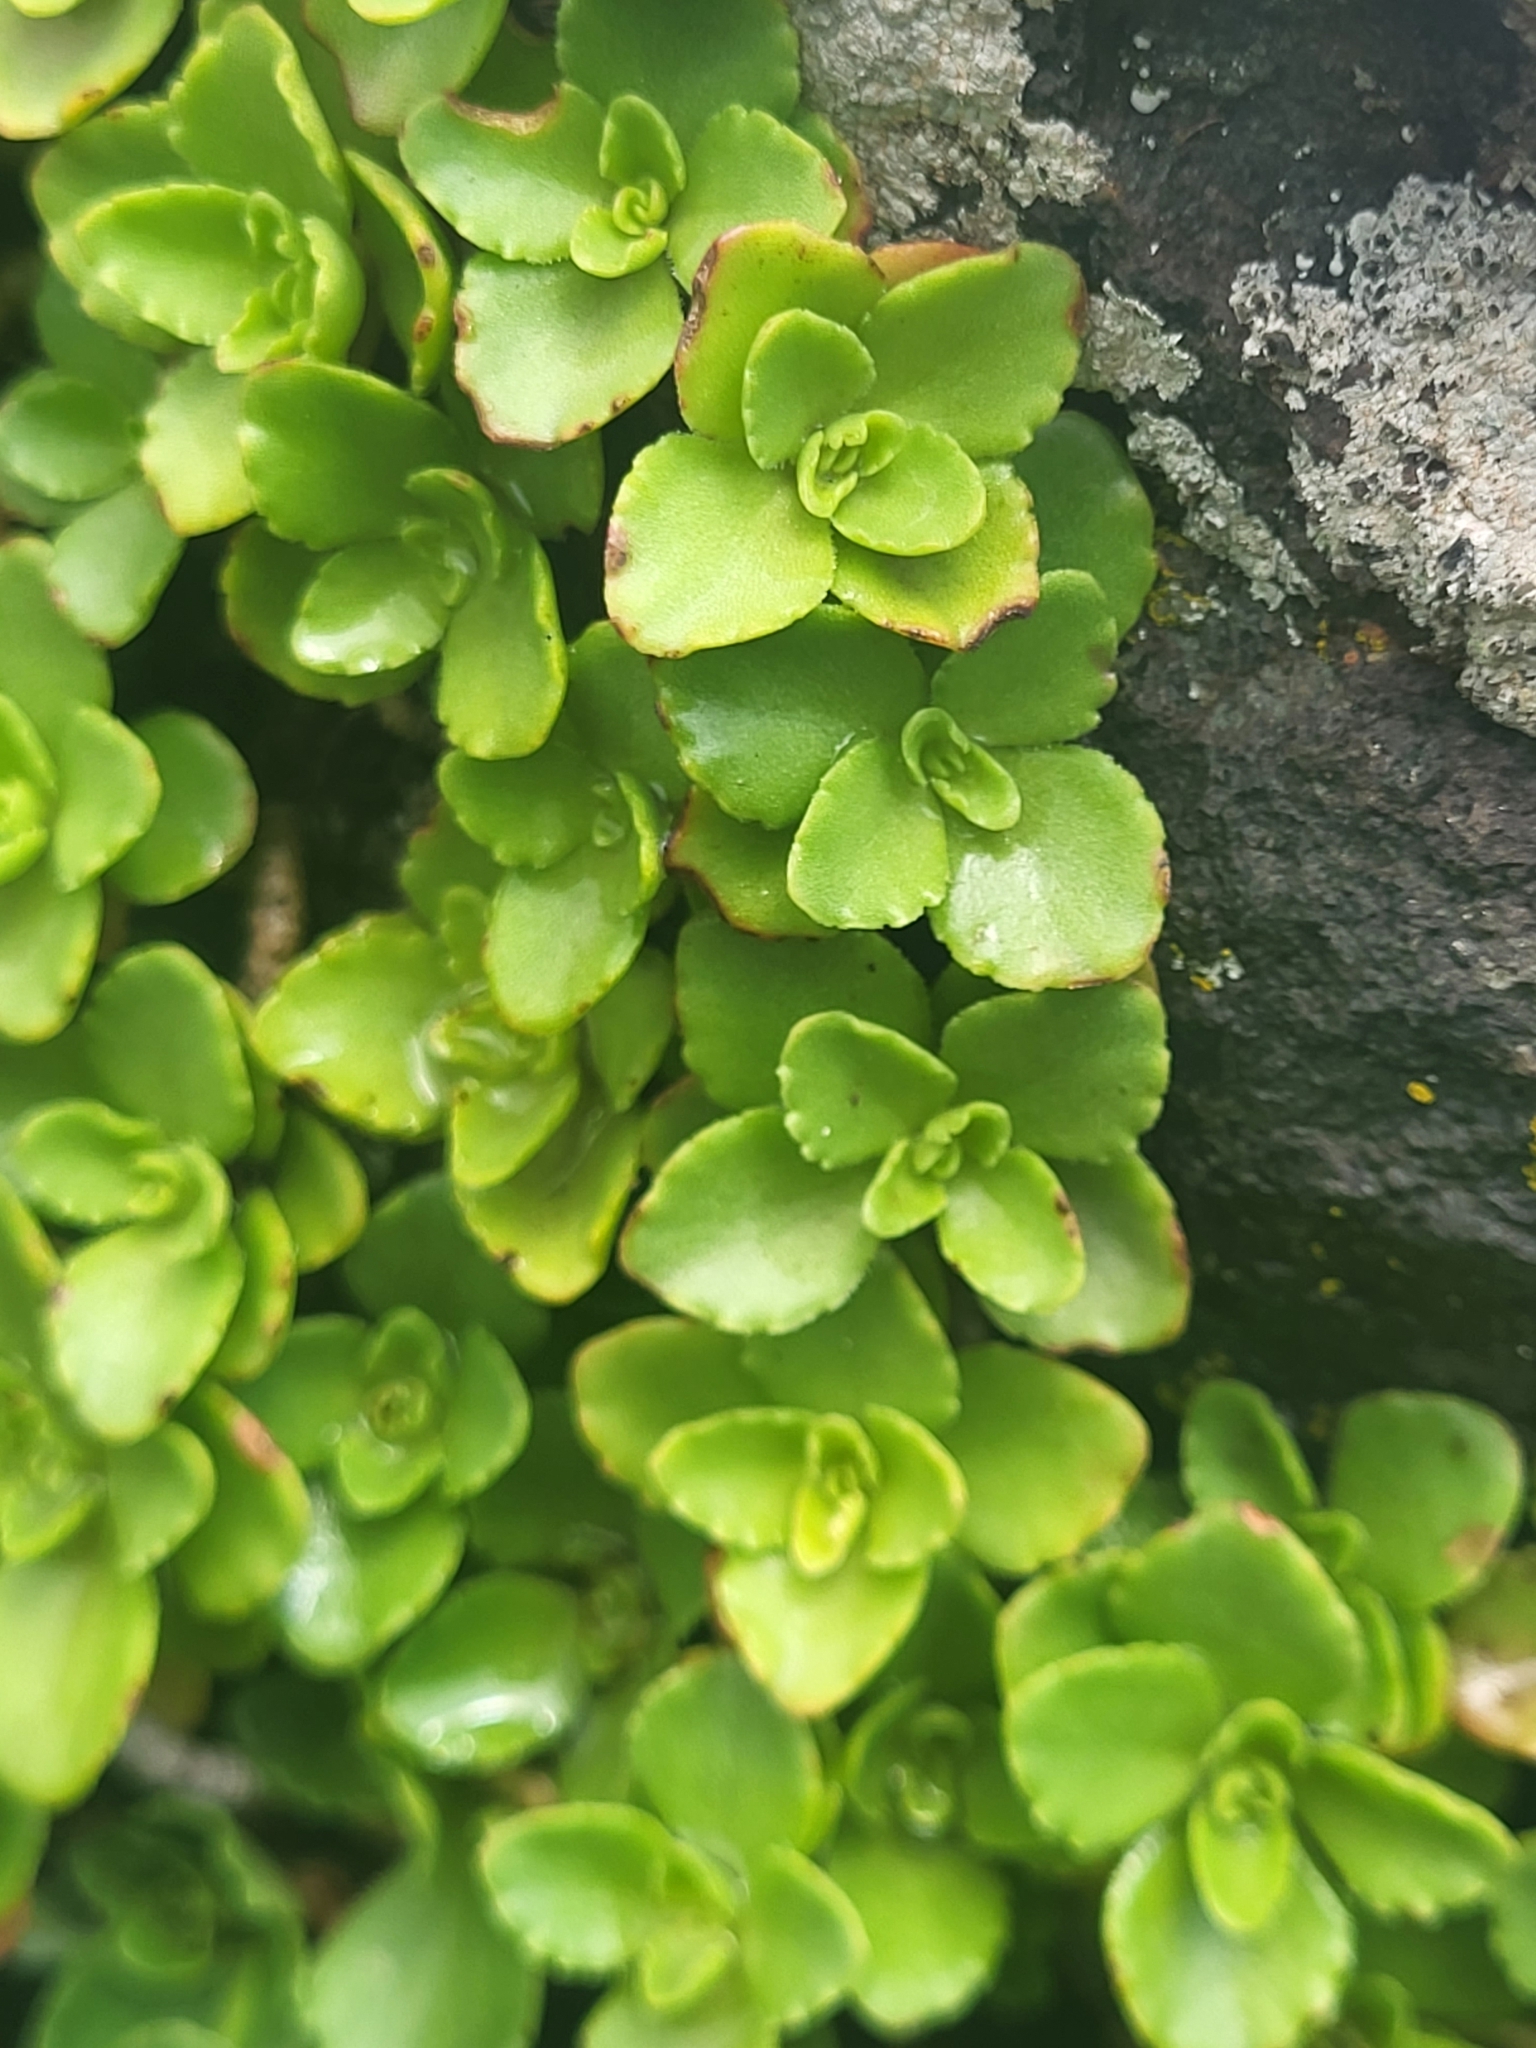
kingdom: Plantae
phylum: Tracheophyta
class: Magnoliopsida
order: Saxifragales
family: Crassulaceae
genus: Phedimus
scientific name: Phedimus spurius
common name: Caucasian stonecrop
